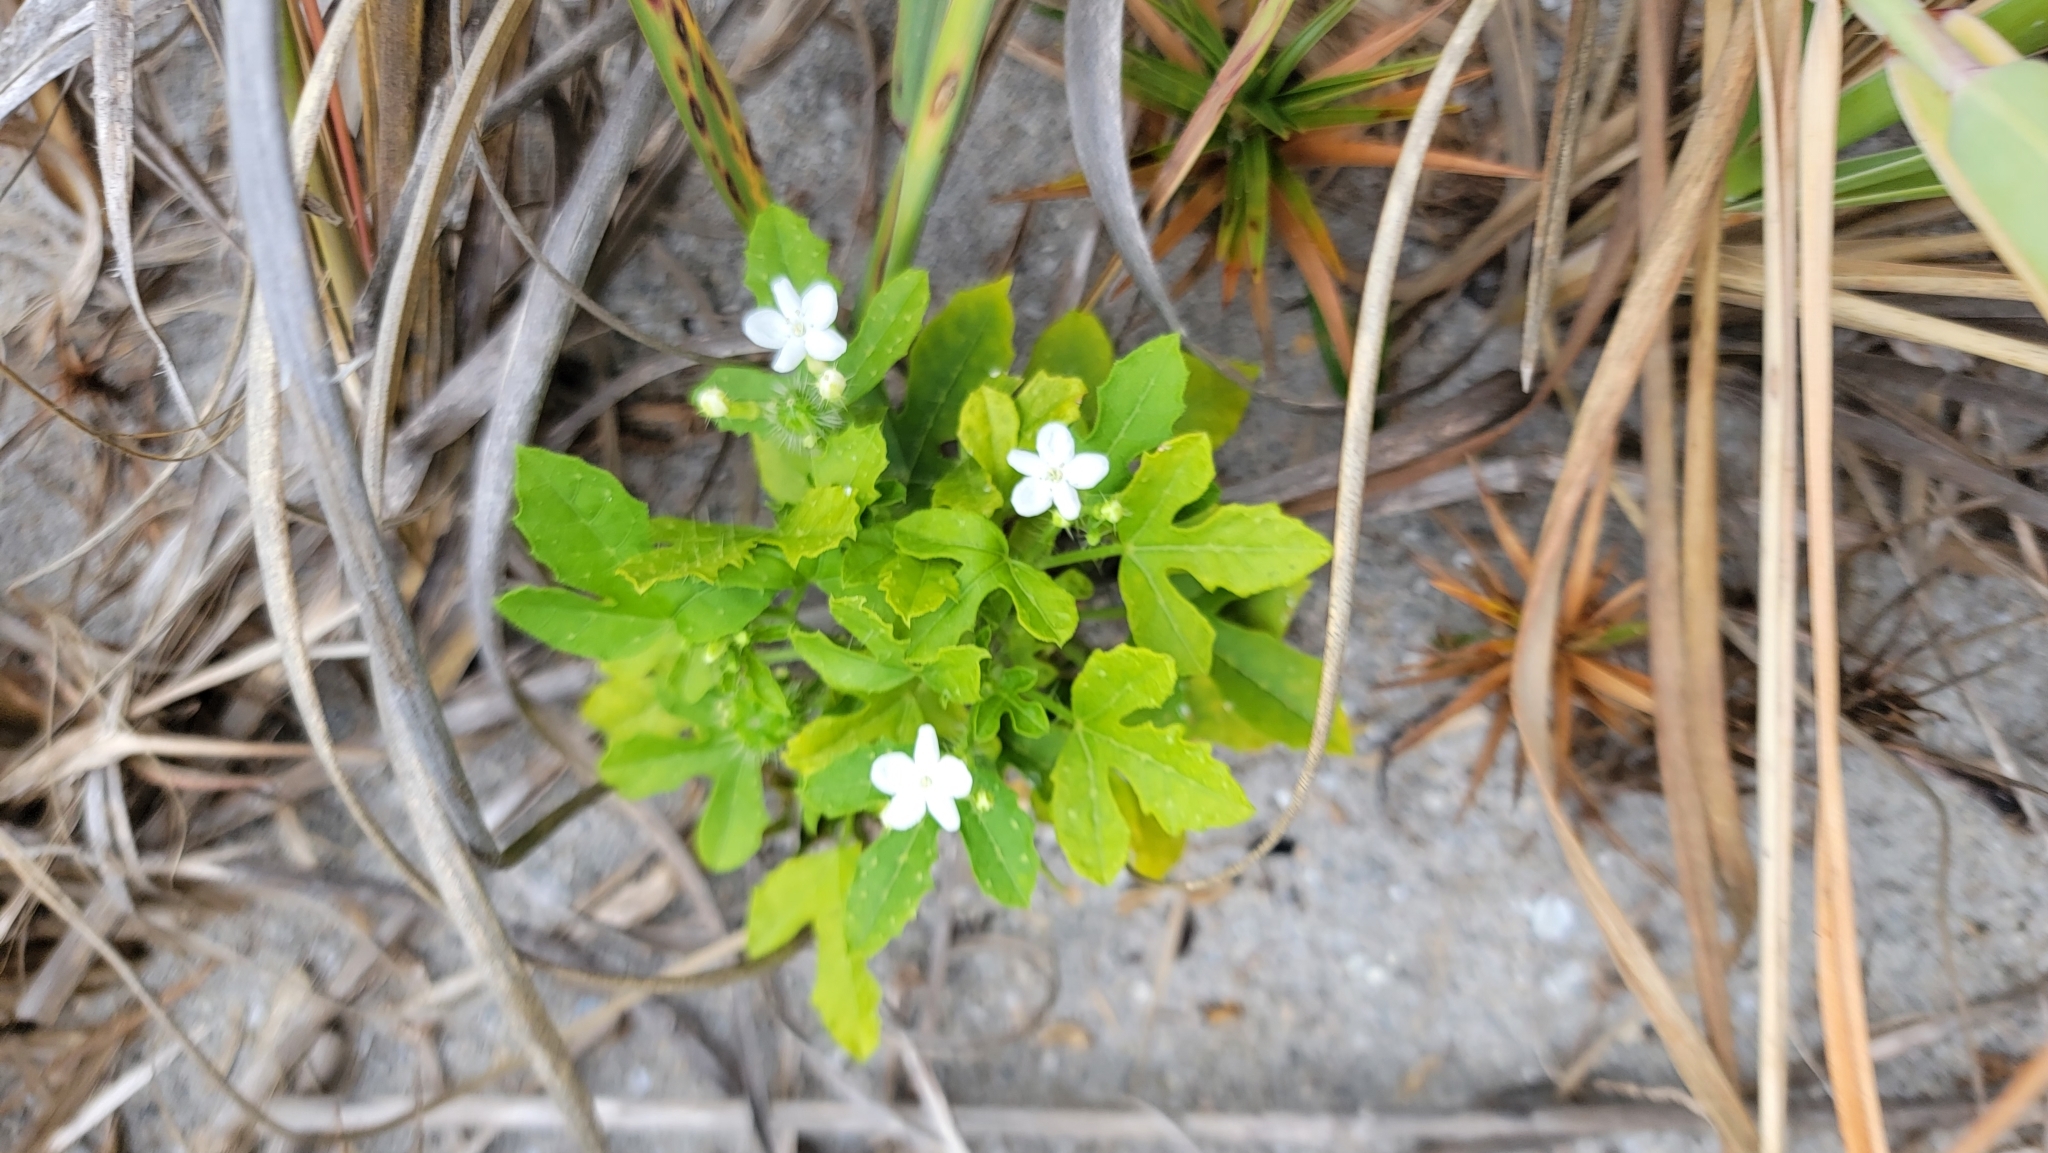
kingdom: Plantae
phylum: Tracheophyta
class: Magnoliopsida
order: Malpighiales
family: Euphorbiaceae
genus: Cnidoscolus
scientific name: Cnidoscolus stimulosus
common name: Bull-nettle
